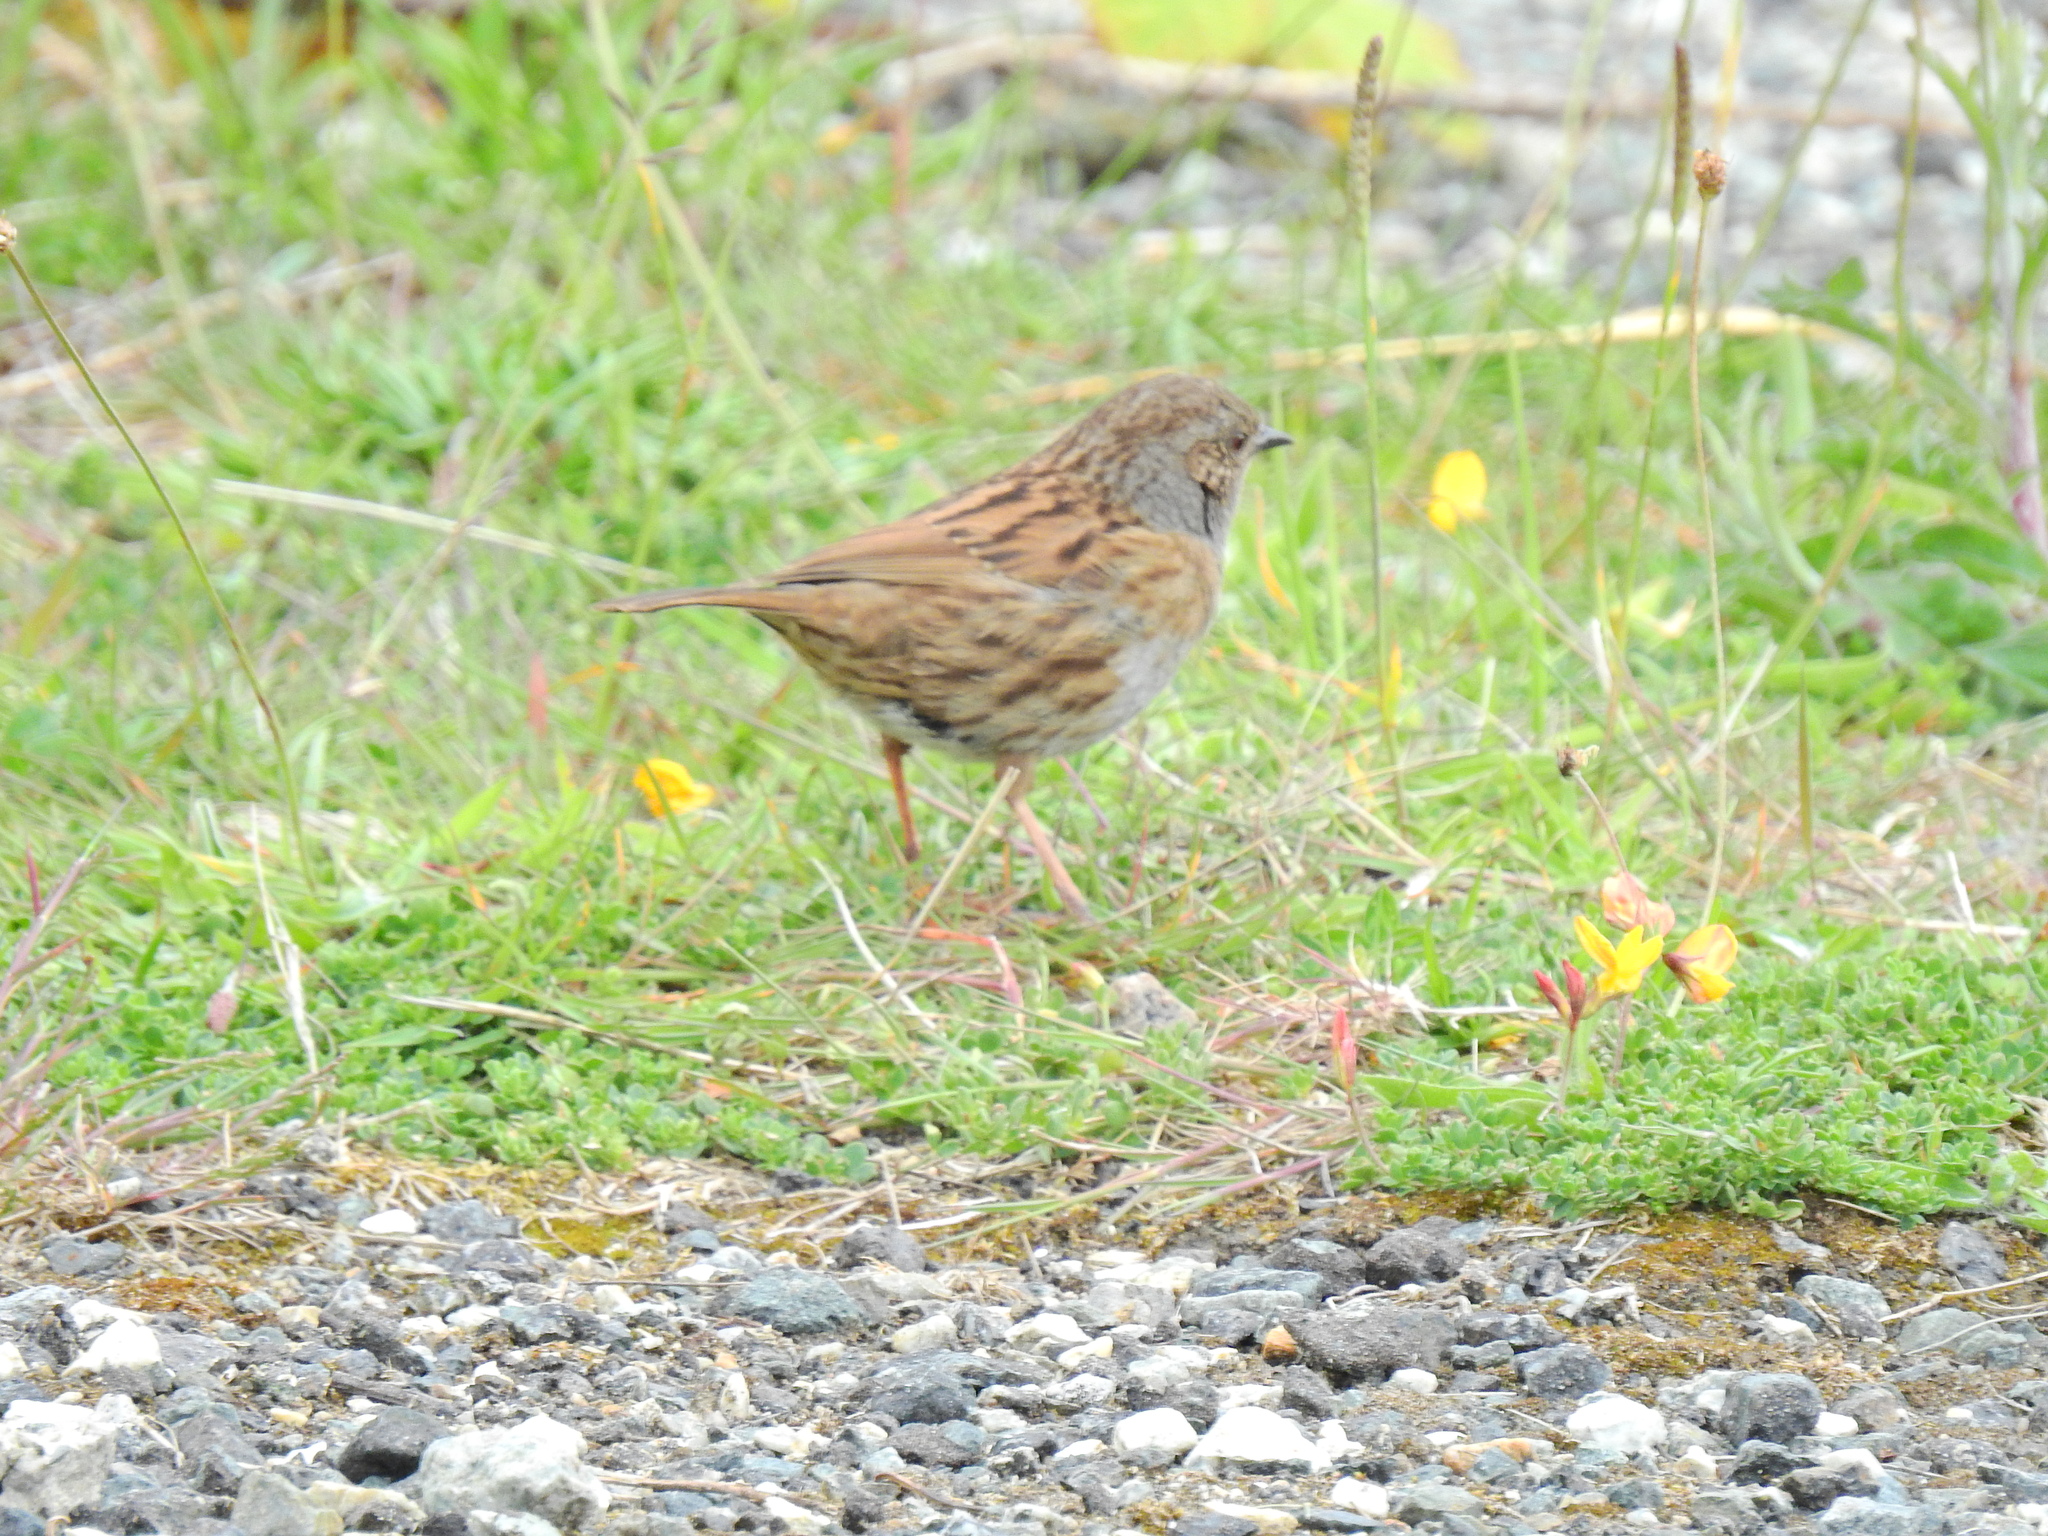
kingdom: Animalia
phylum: Chordata
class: Aves
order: Passeriformes
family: Prunellidae
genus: Prunella
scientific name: Prunella modularis
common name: Dunnock
